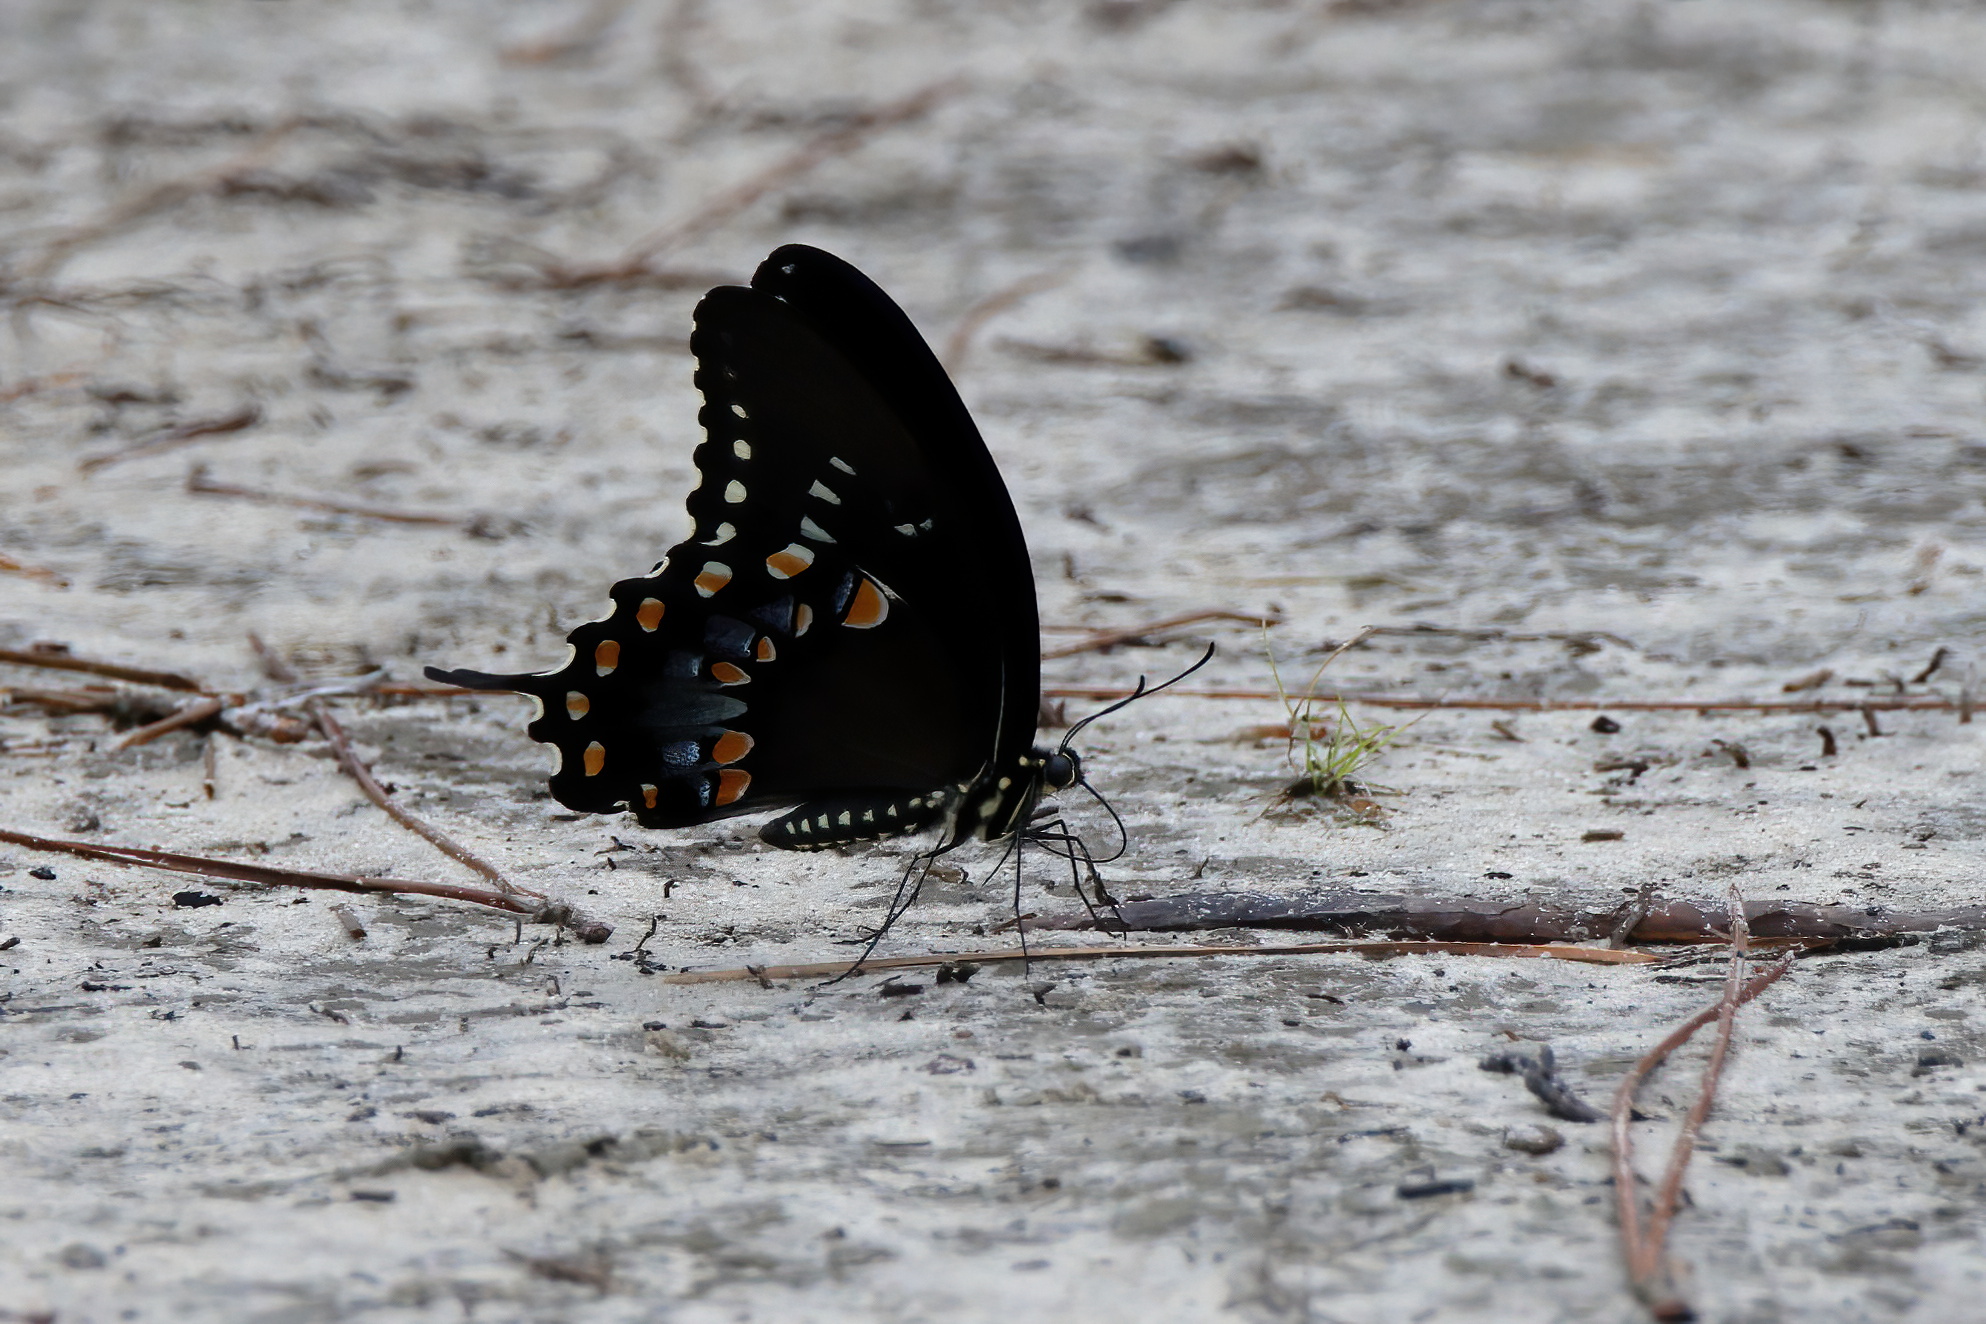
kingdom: Animalia
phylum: Arthropoda
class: Insecta
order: Lepidoptera
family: Papilionidae
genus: Papilio
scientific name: Papilio troilus
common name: Spicebush swallowtail
